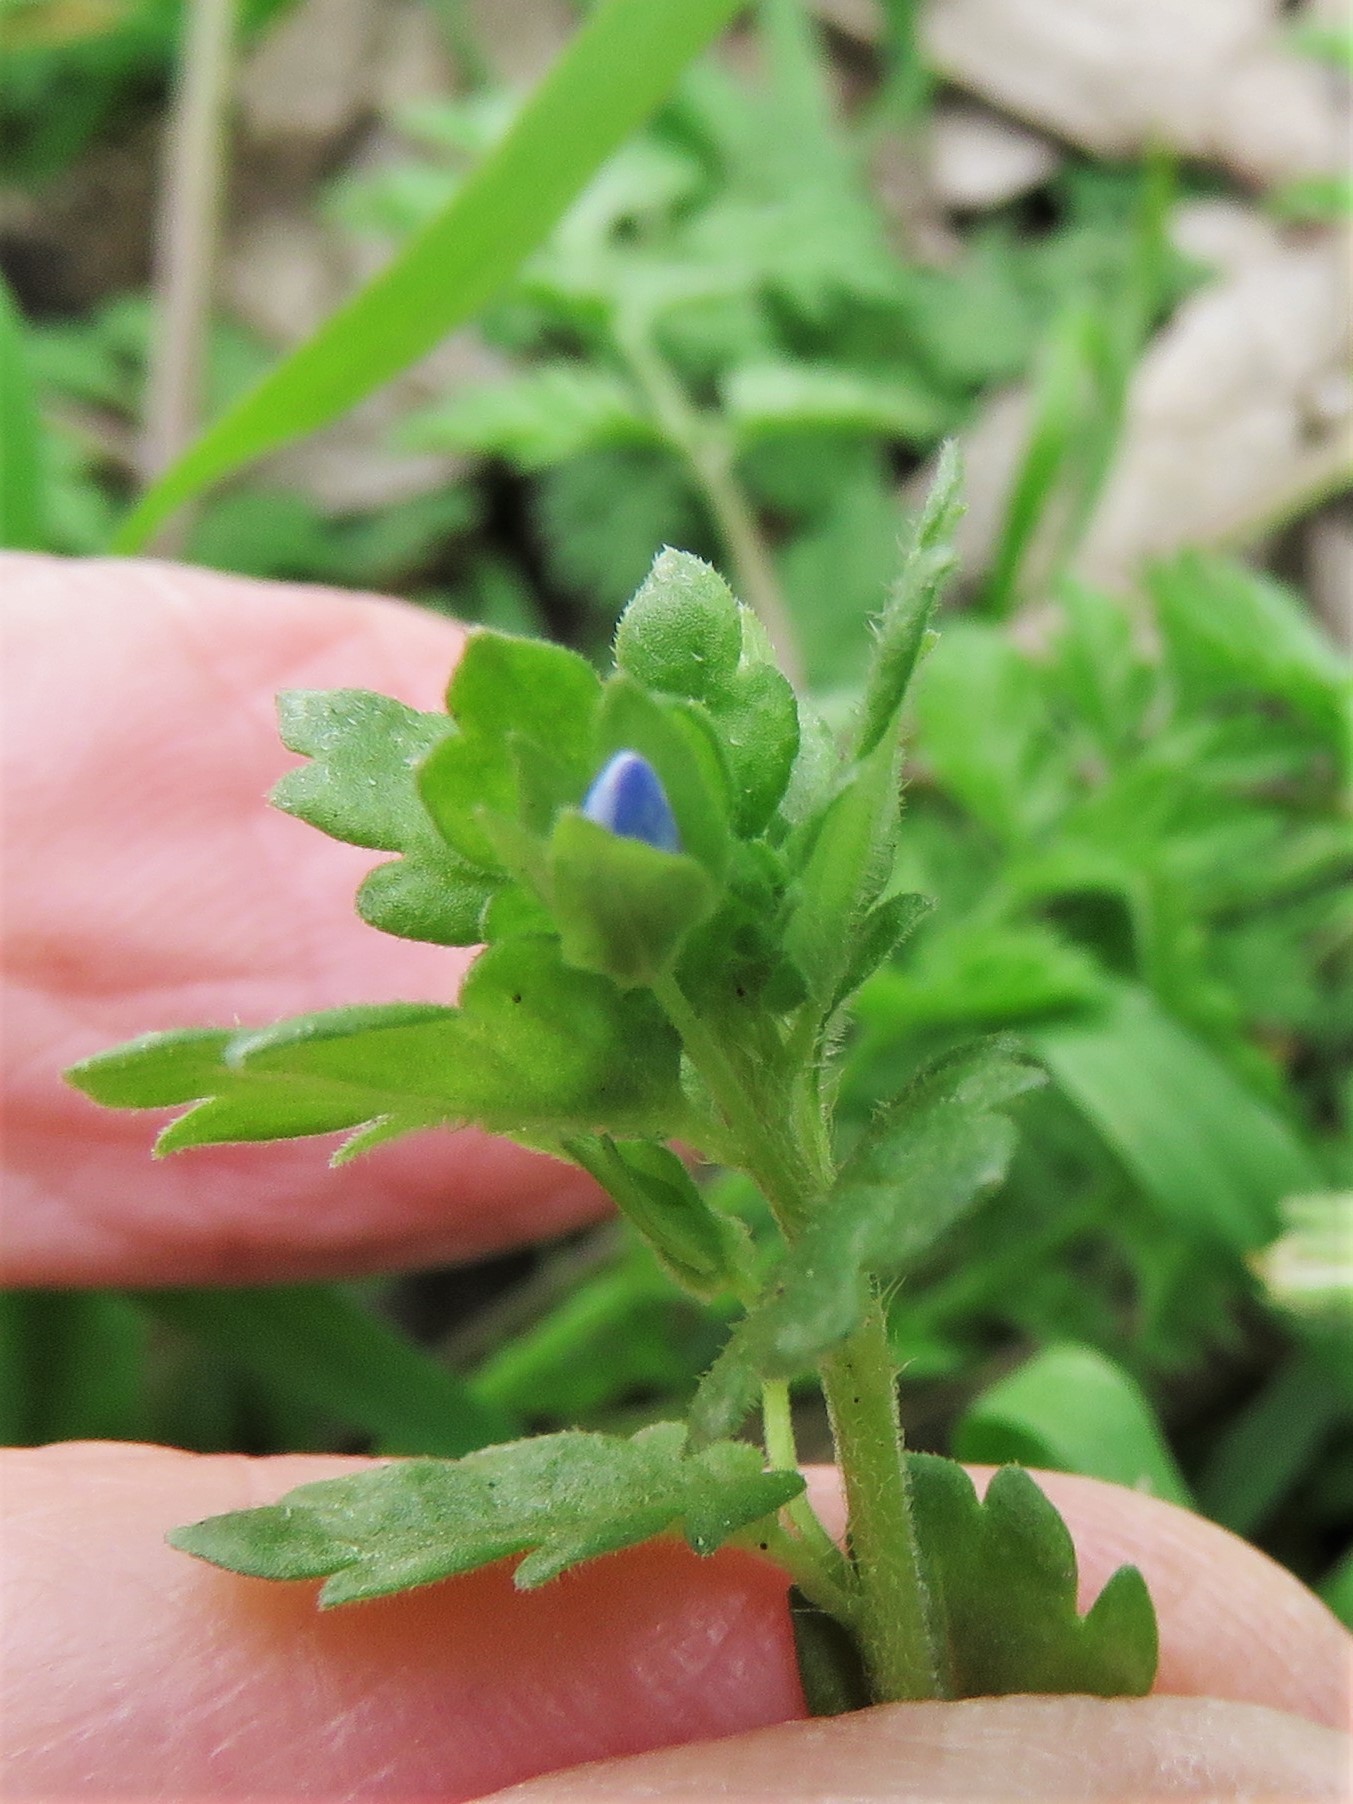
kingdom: Plantae
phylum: Tracheophyta
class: Magnoliopsida
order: Lamiales
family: Plantaginaceae
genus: Veronica
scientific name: Veronica polita
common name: Grey field-speedwell
